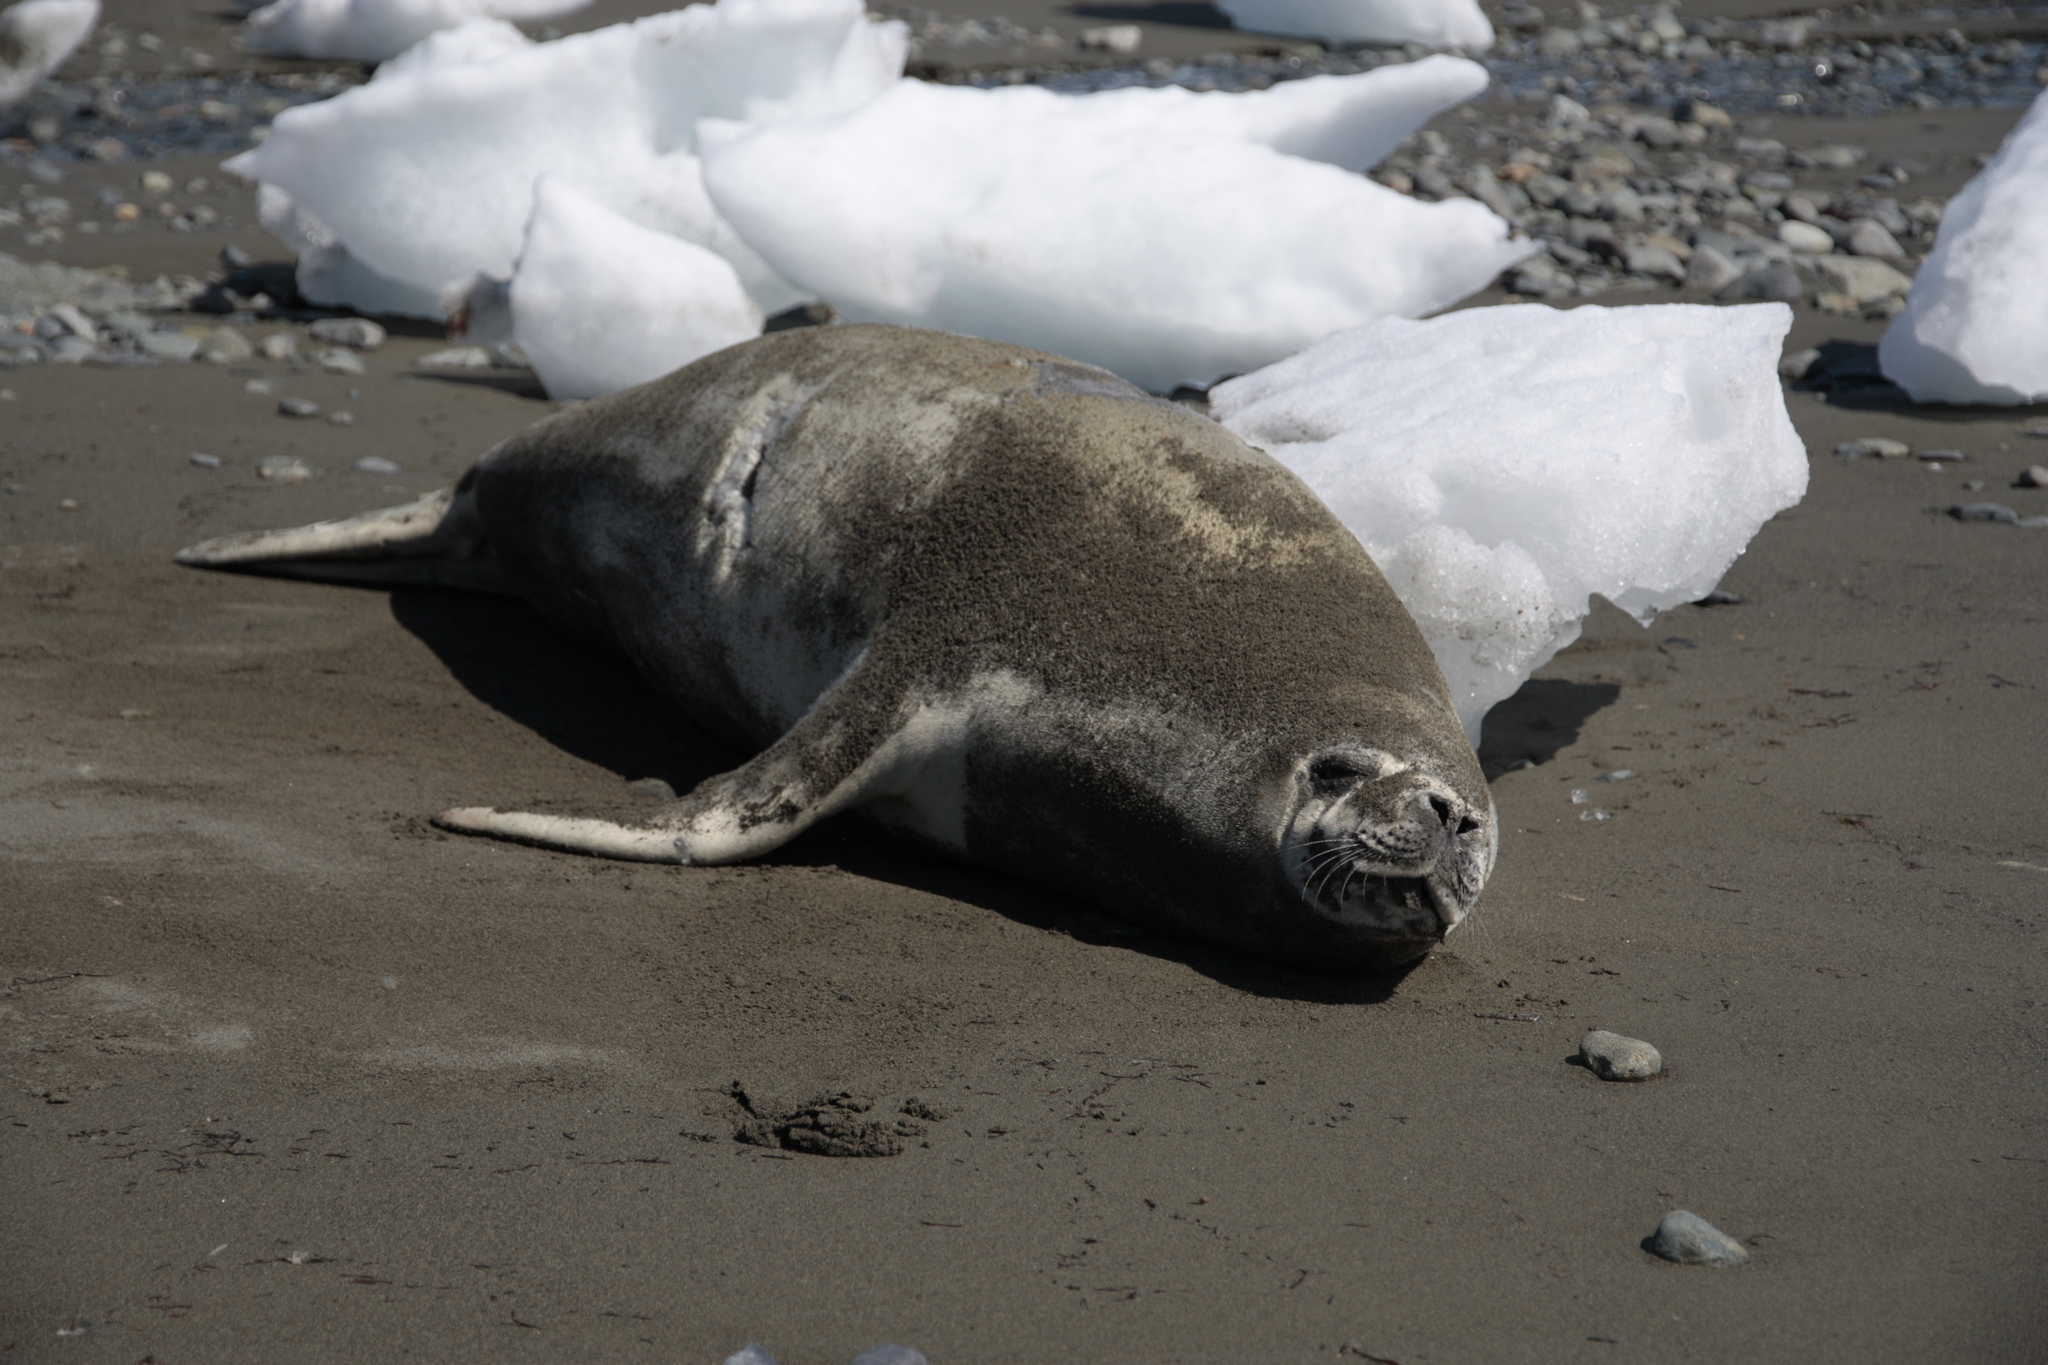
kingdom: Animalia
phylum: Chordata
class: Mammalia
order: Carnivora
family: Phocidae
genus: Lobodon
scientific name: Lobodon carcinophaga
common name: Crabeater seal
